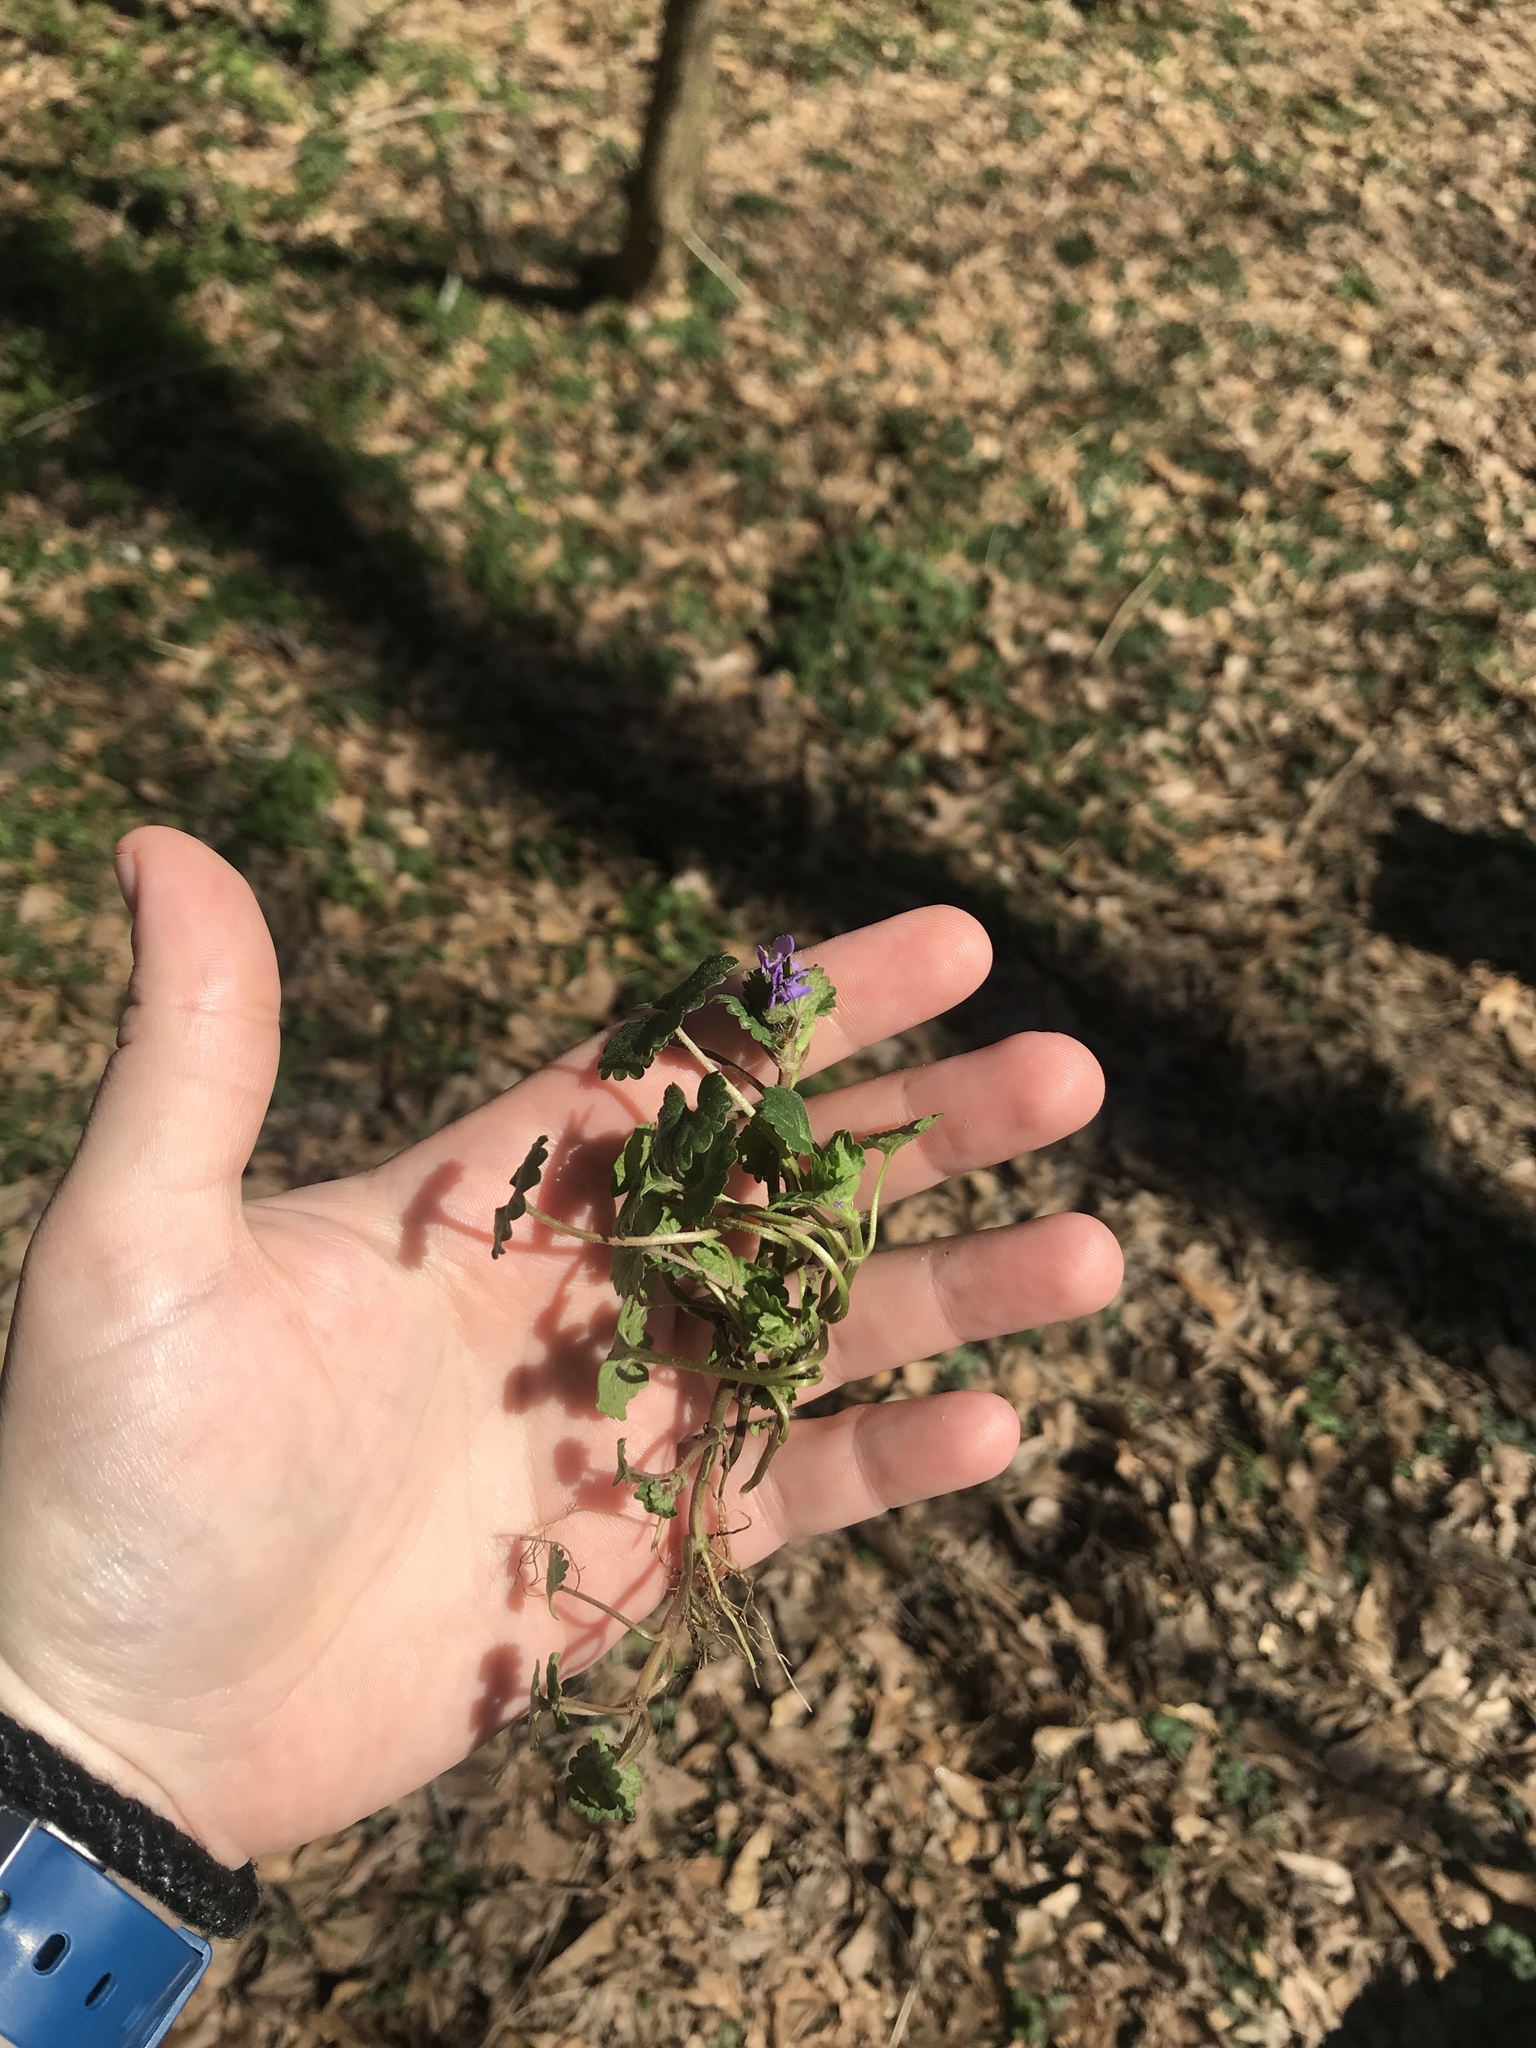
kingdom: Plantae
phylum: Tracheophyta
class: Magnoliopsida
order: Lamiales
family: Lamiaceae
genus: Glechoma
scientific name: Glechoma hederacea
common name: Ground ivy
